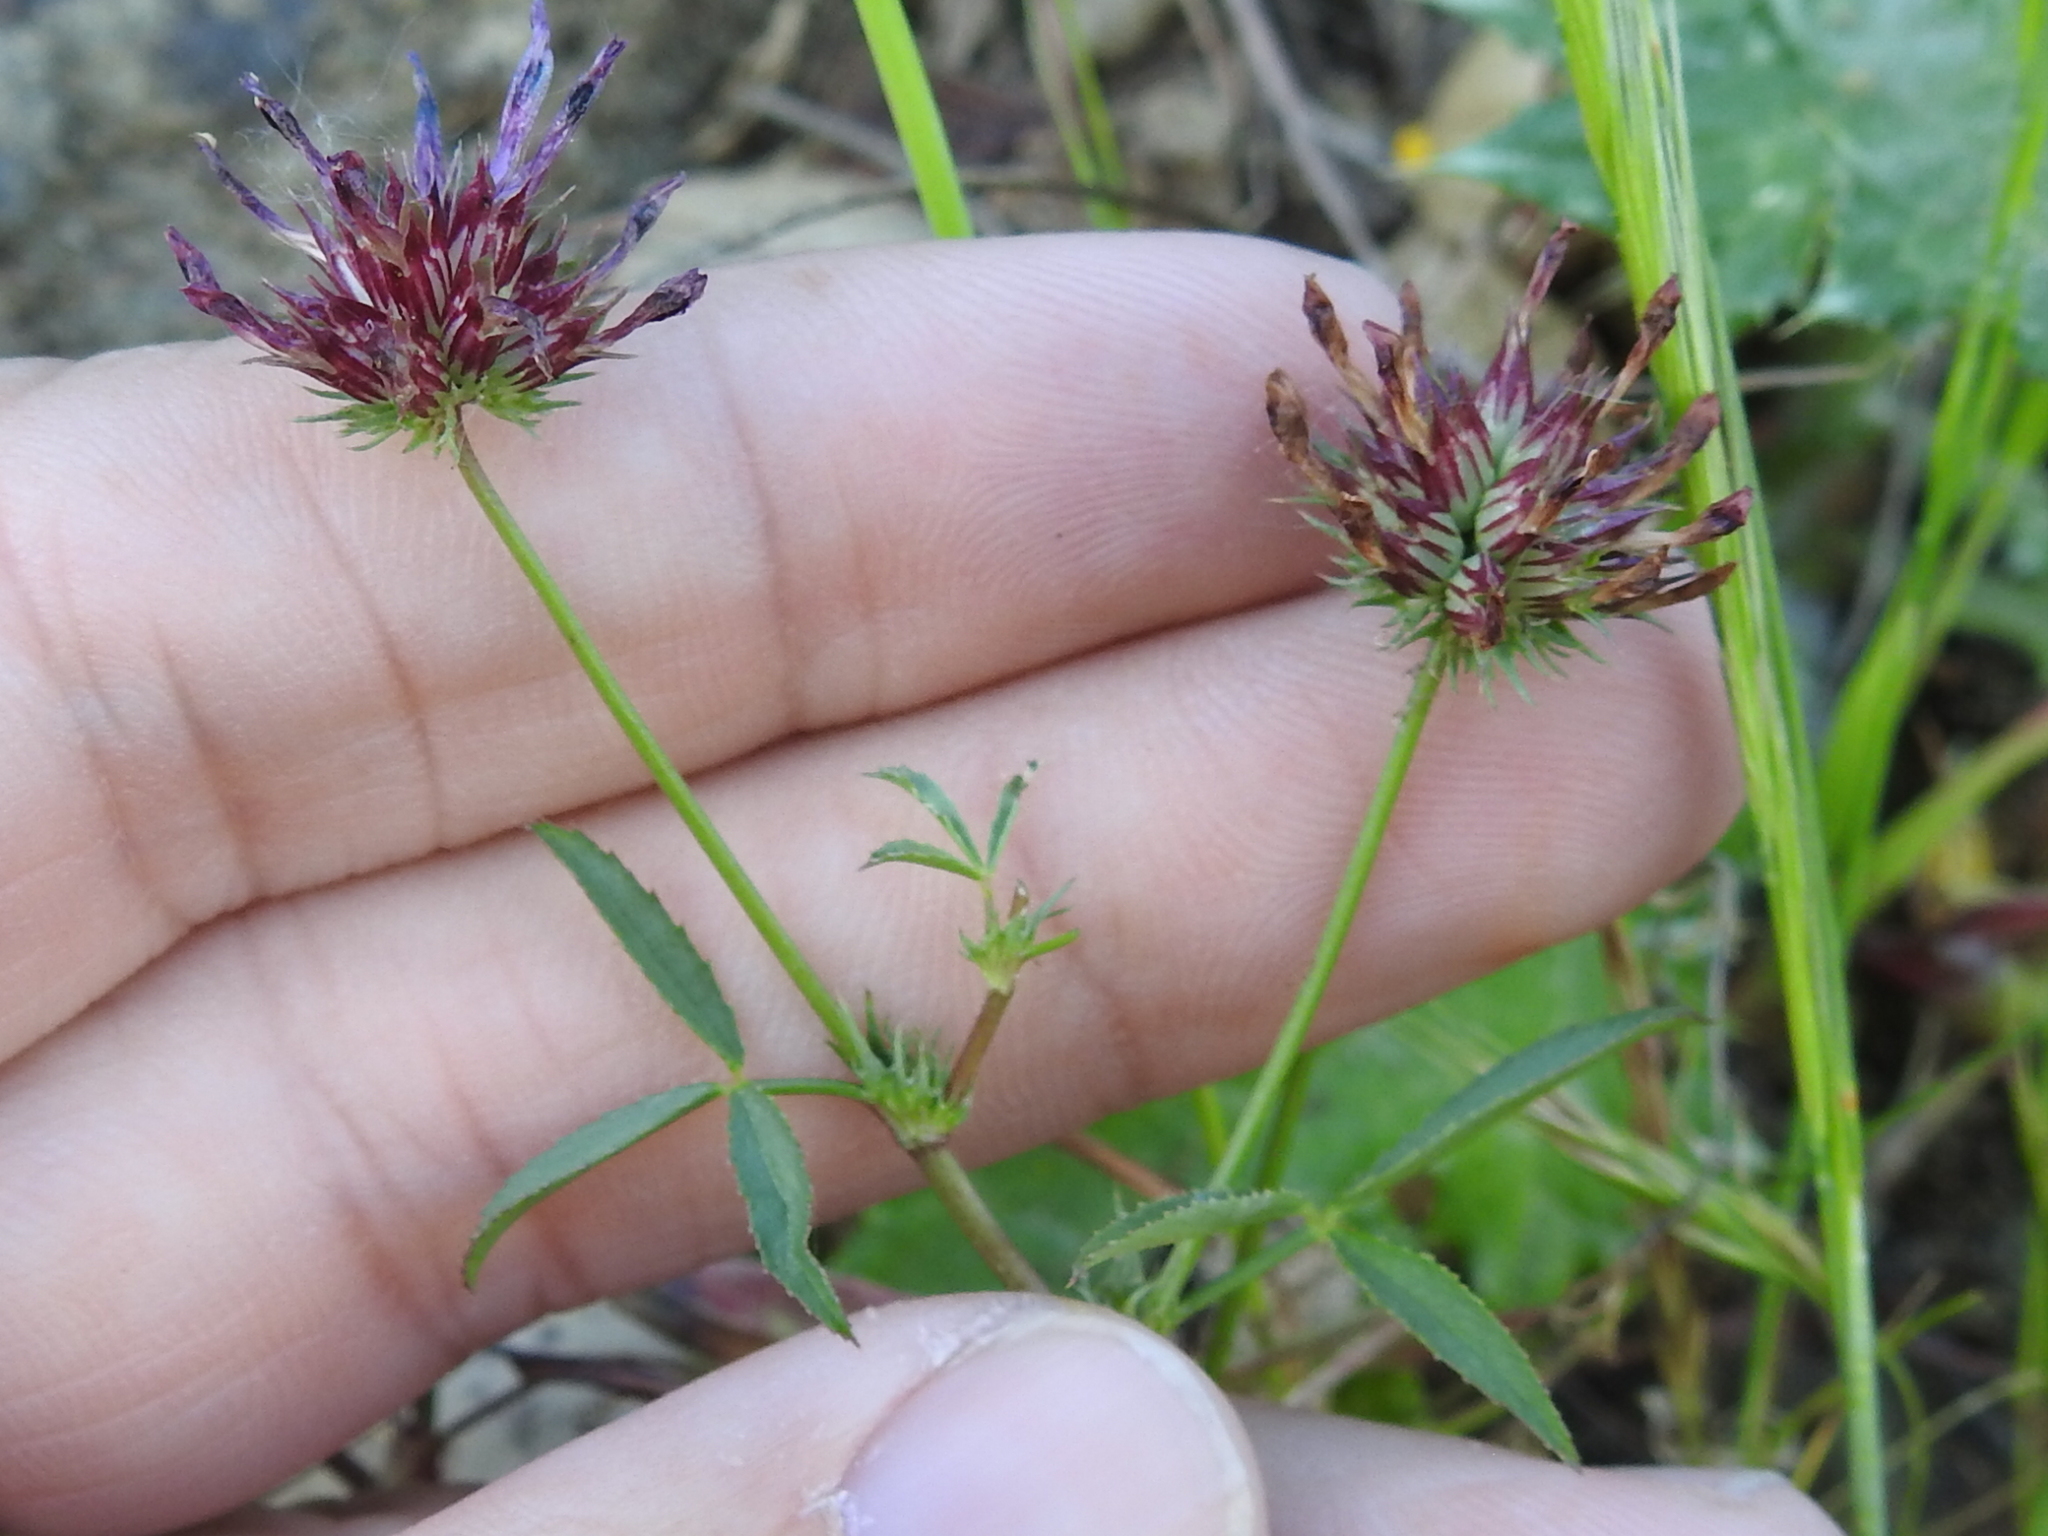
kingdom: Plantae
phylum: Tracheophyta
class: Magnoliopsida
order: Fabales
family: Fabaceae
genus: Trifolium
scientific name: Trifolium willdenovii
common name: Tomcat clover
